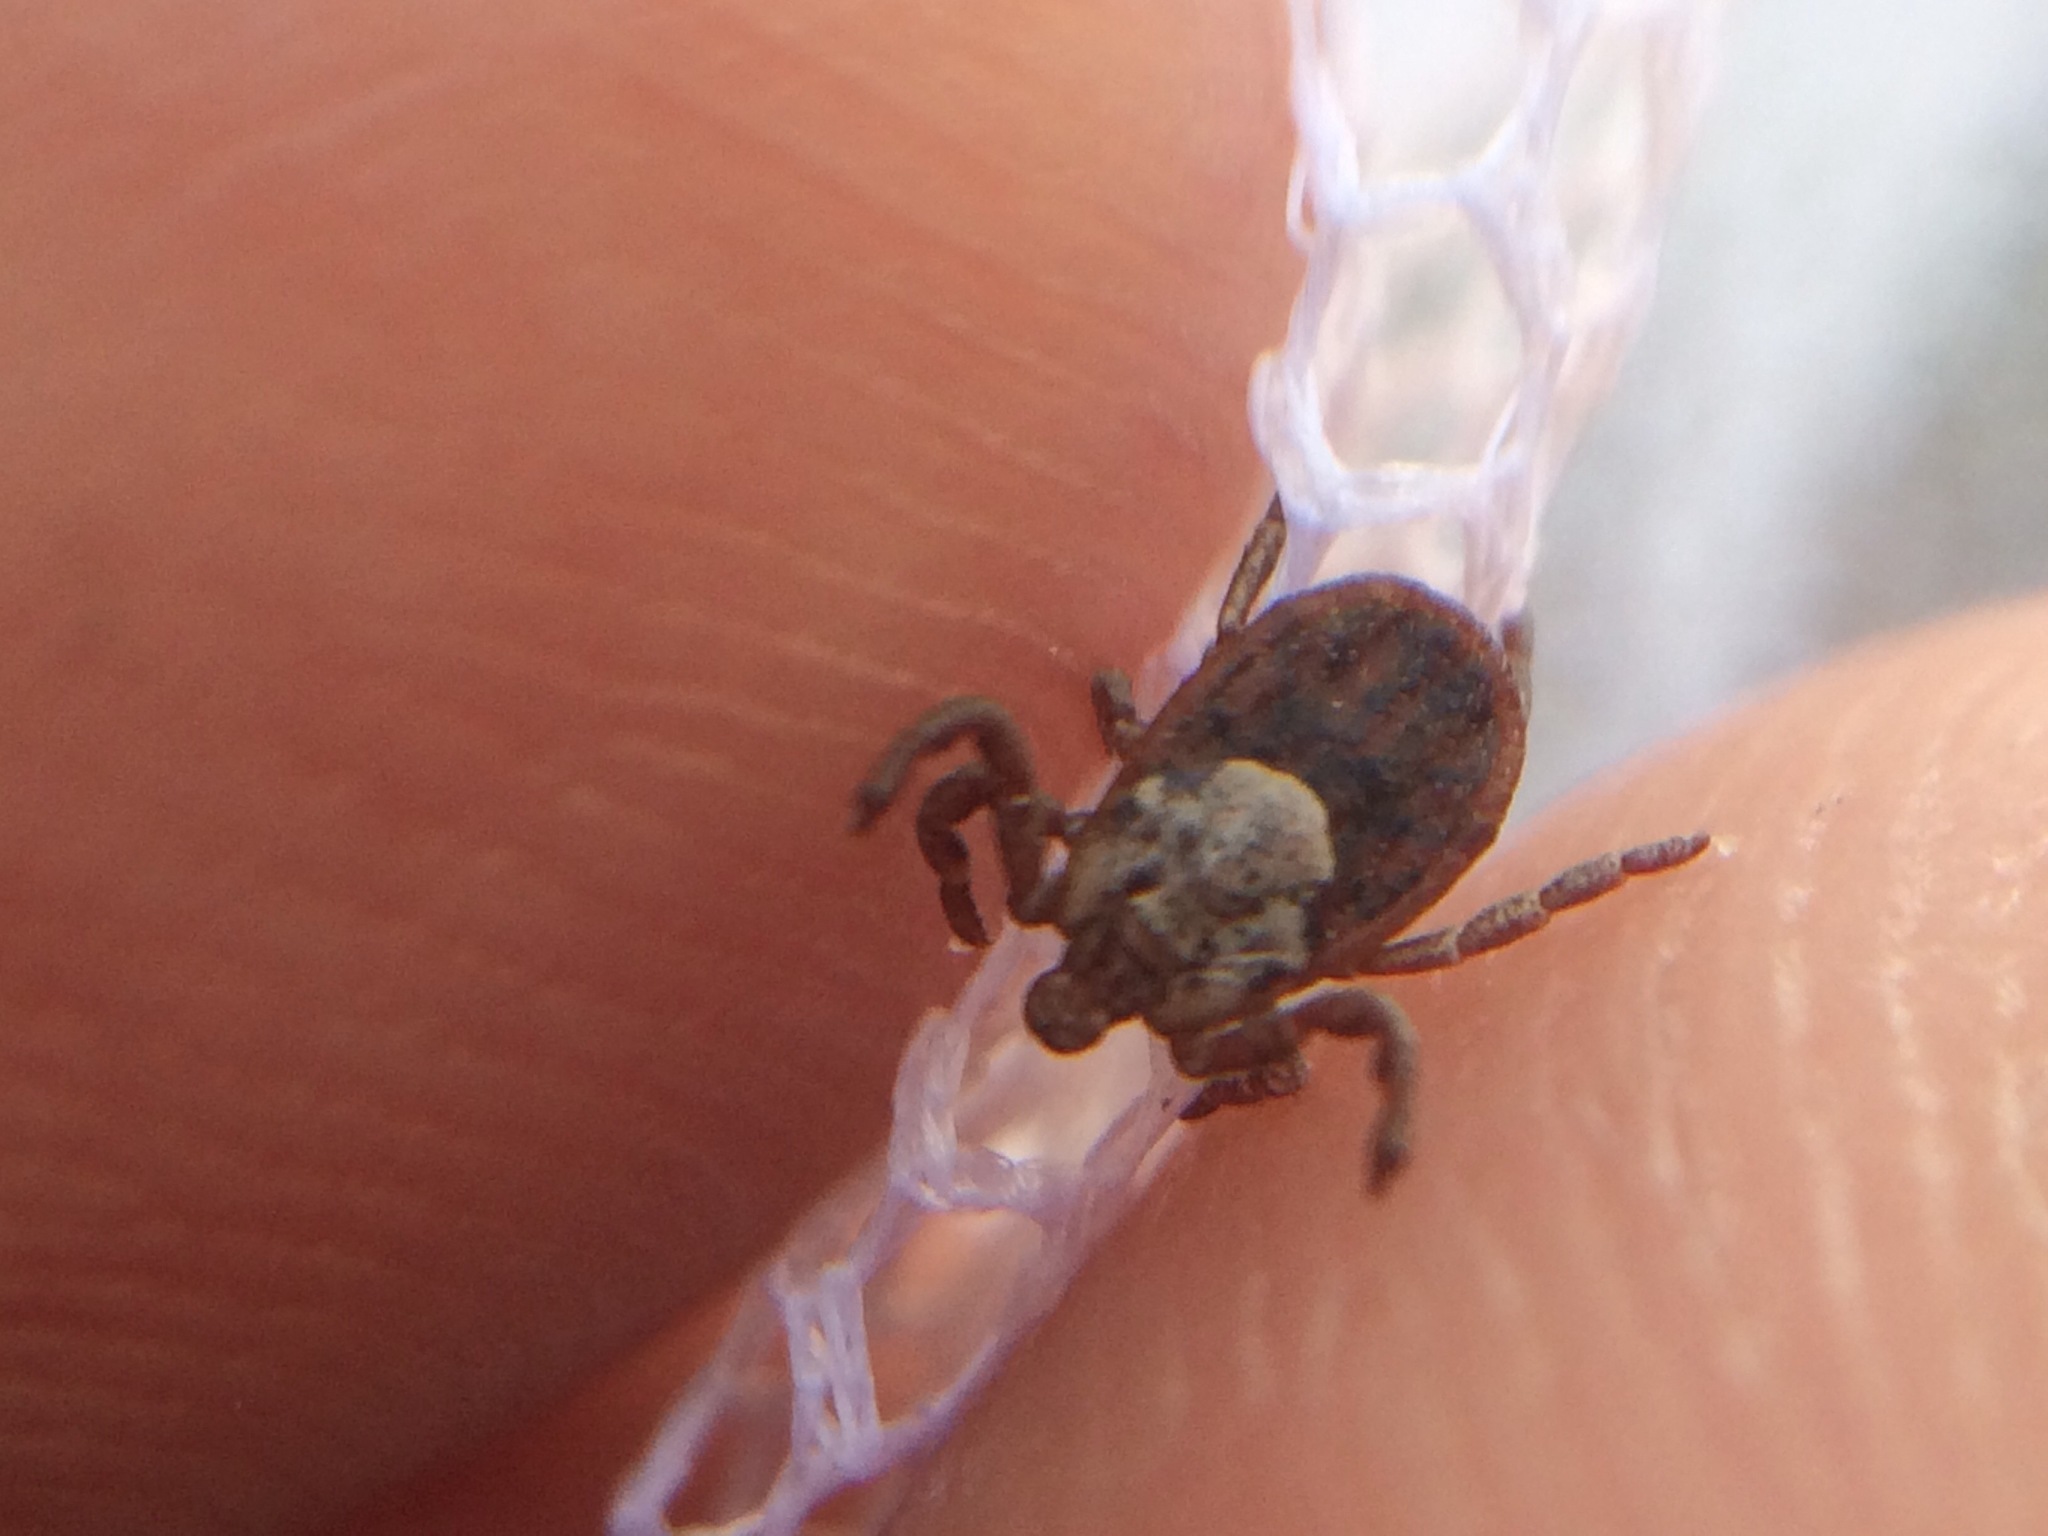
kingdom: Animalia
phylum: Arthropoda
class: Arachnida
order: Ixodida
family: Ixodidae
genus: Dermacentor
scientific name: Dermacentor occidentalis
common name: Net tick
